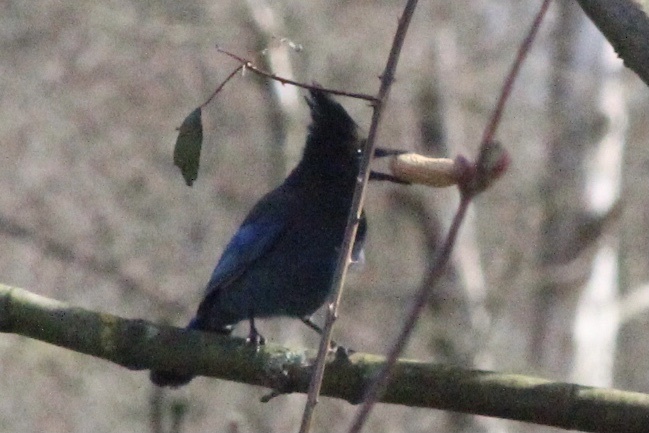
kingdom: Animalia
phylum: Chordata
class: Aves
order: Passeriformes
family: Corvidae
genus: Cyanocitta
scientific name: Cyanocitta stelleri
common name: Steller's jay
